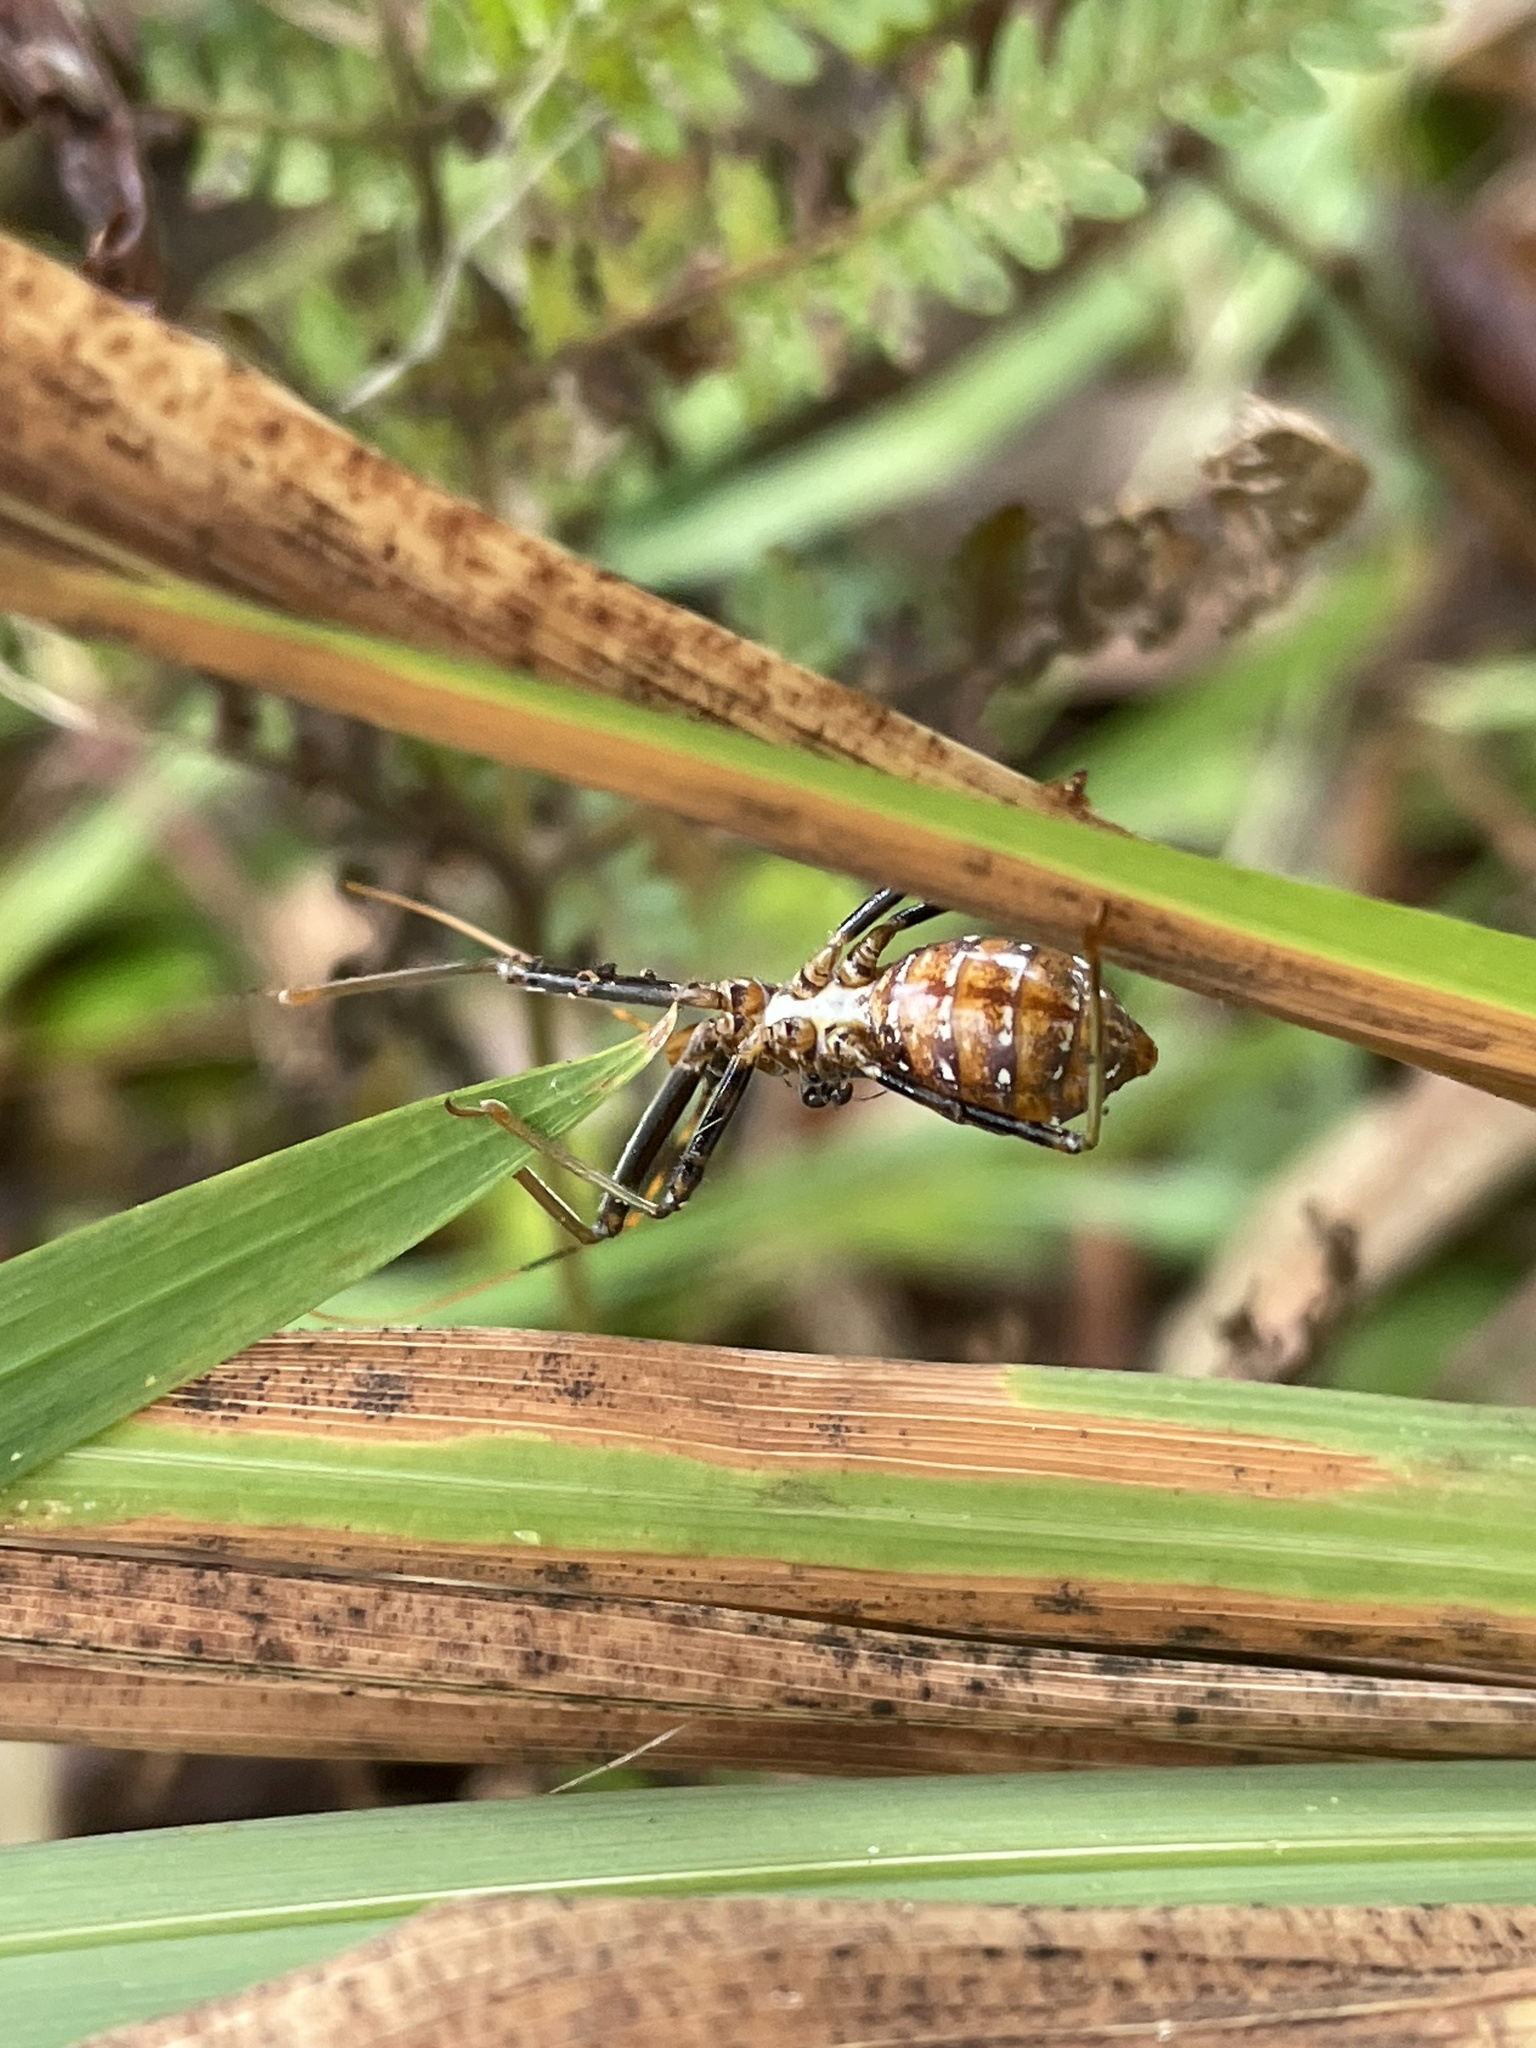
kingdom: Animalia
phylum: Arthropoda
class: Insecta
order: Hemiptera
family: Reduviidae
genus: Pristhesancus
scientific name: Pristhesancus plagipennis
